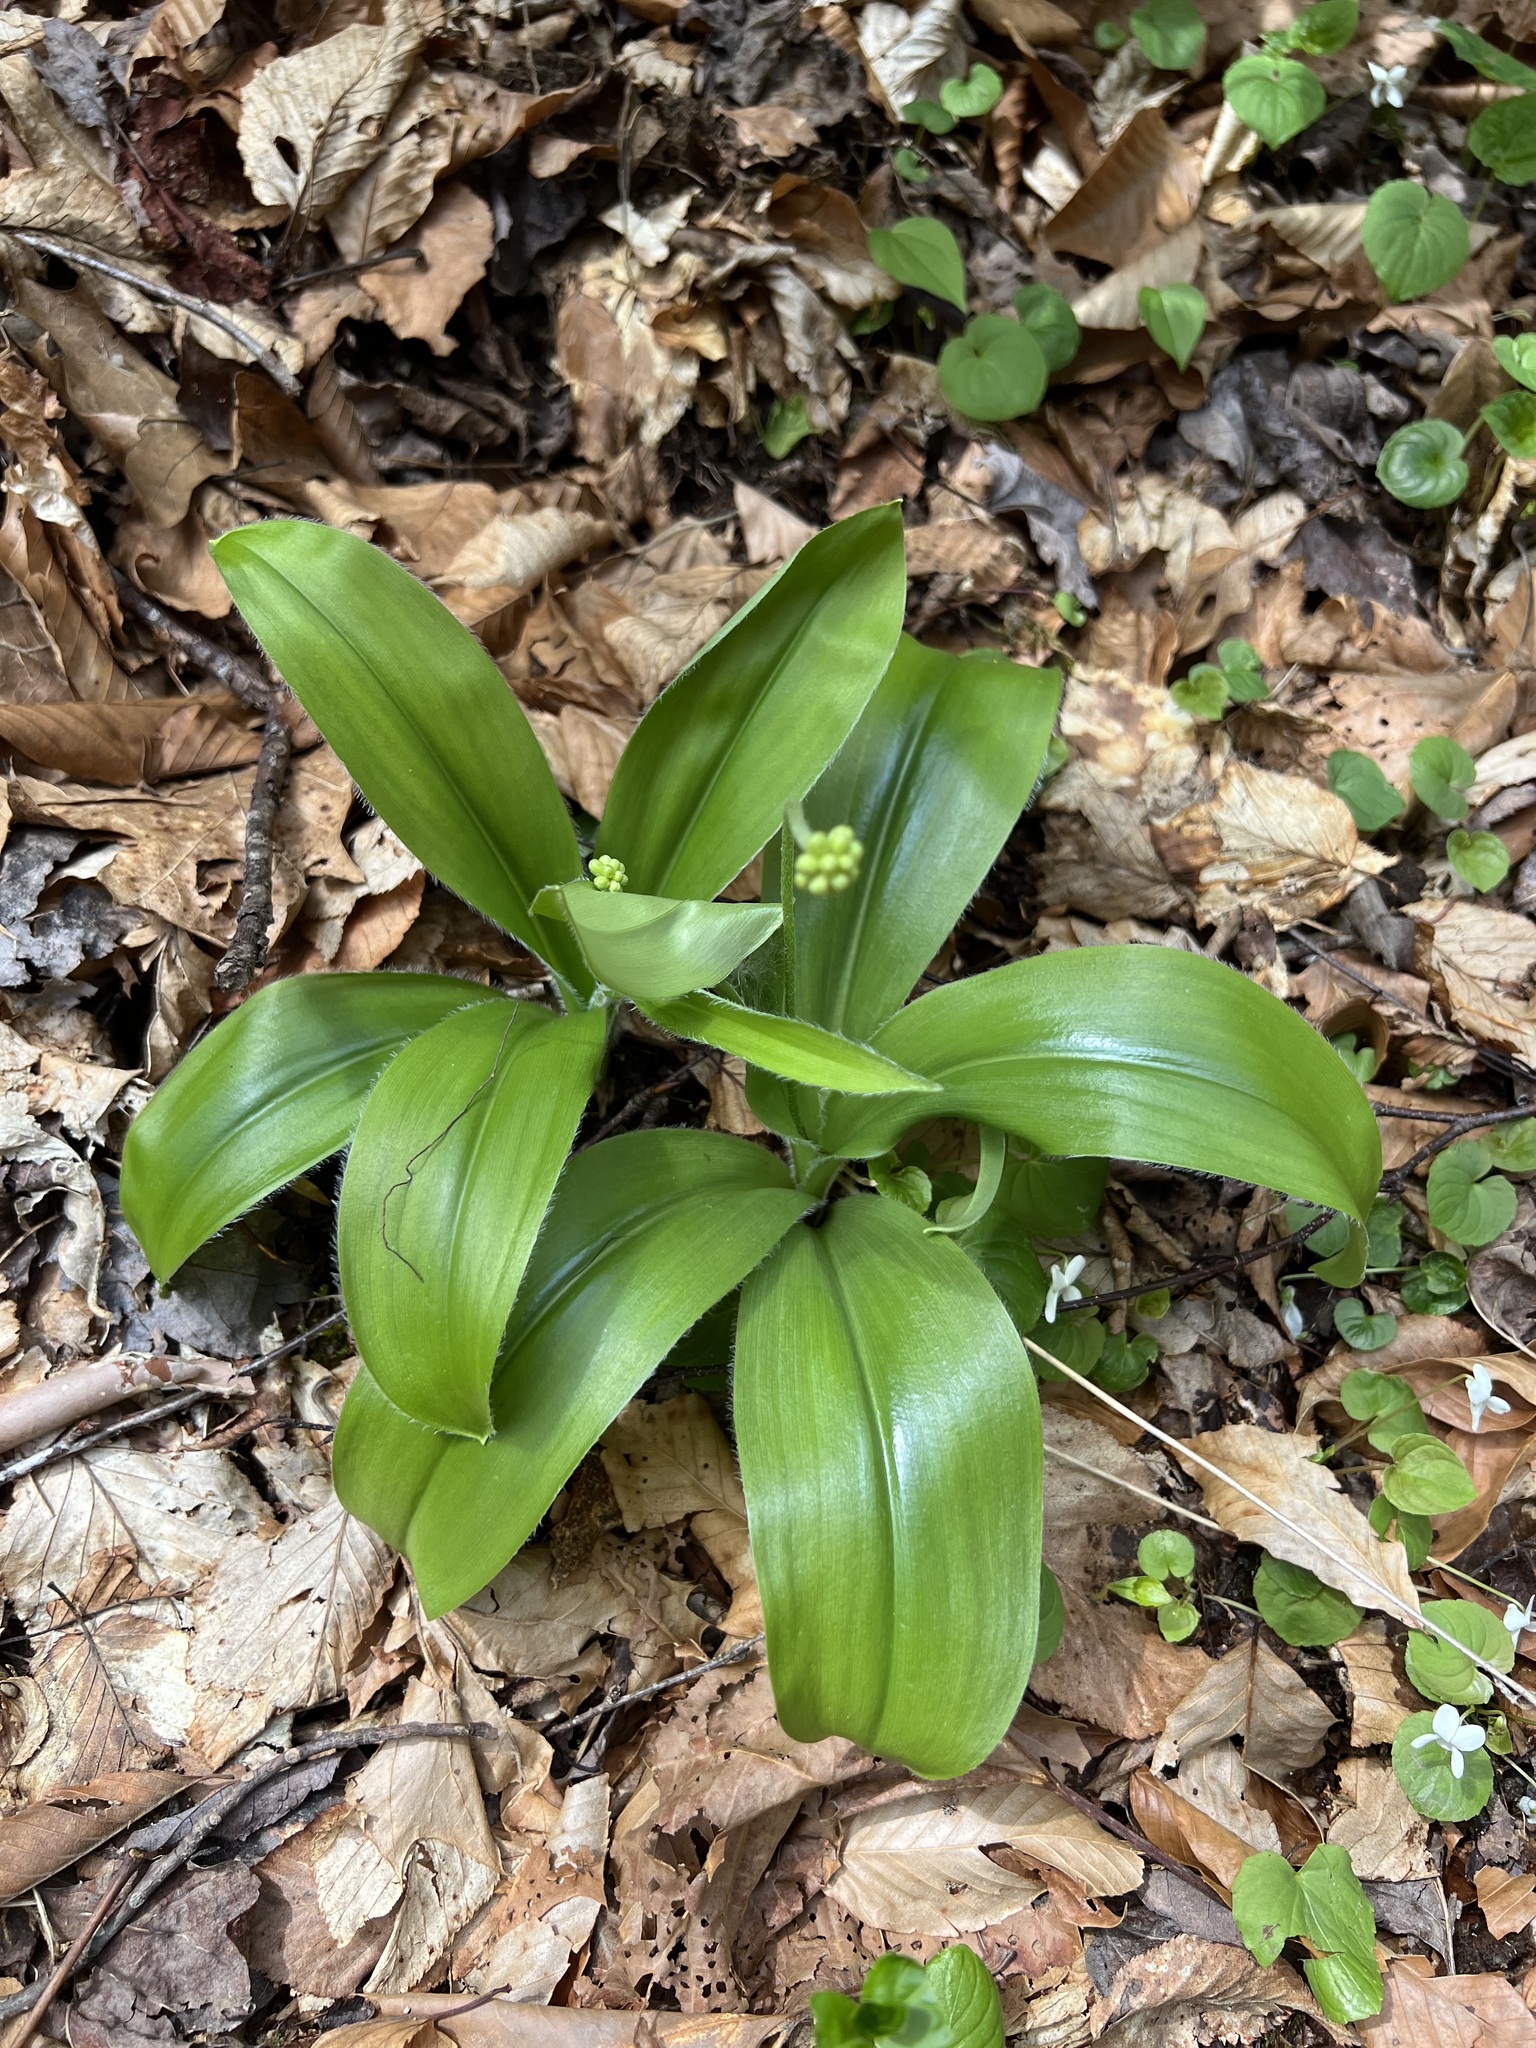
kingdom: Plantae
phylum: Tracheophyta
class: Liliopsida
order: Liliales
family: Liliaceae
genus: Clintonia
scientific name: Clintonia umbellulata
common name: Speckle wood-lily
